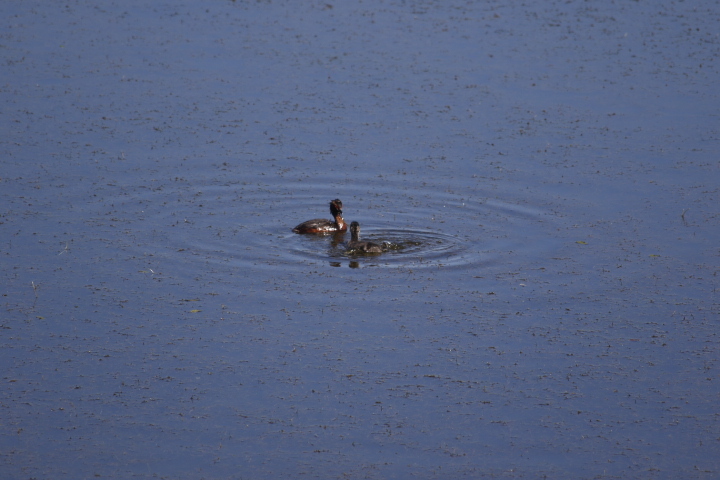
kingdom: Animalia
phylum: Chordata
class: Aves
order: Podicipediformes
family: Podicipedidae
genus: Podiceps
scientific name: Podiceps auritus
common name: Horned grebe
